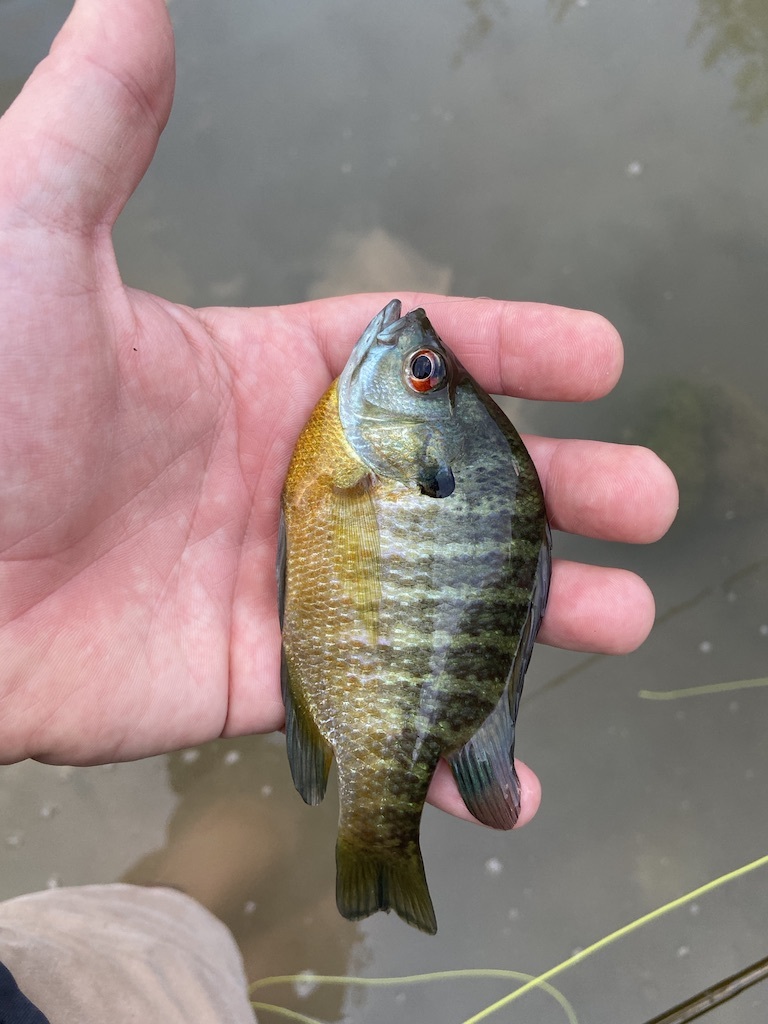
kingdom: Animalia
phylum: Chordata
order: Perciformes
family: Centrarchidae
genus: Lepomis
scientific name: Lepomis macrochirus
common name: Bluegill
